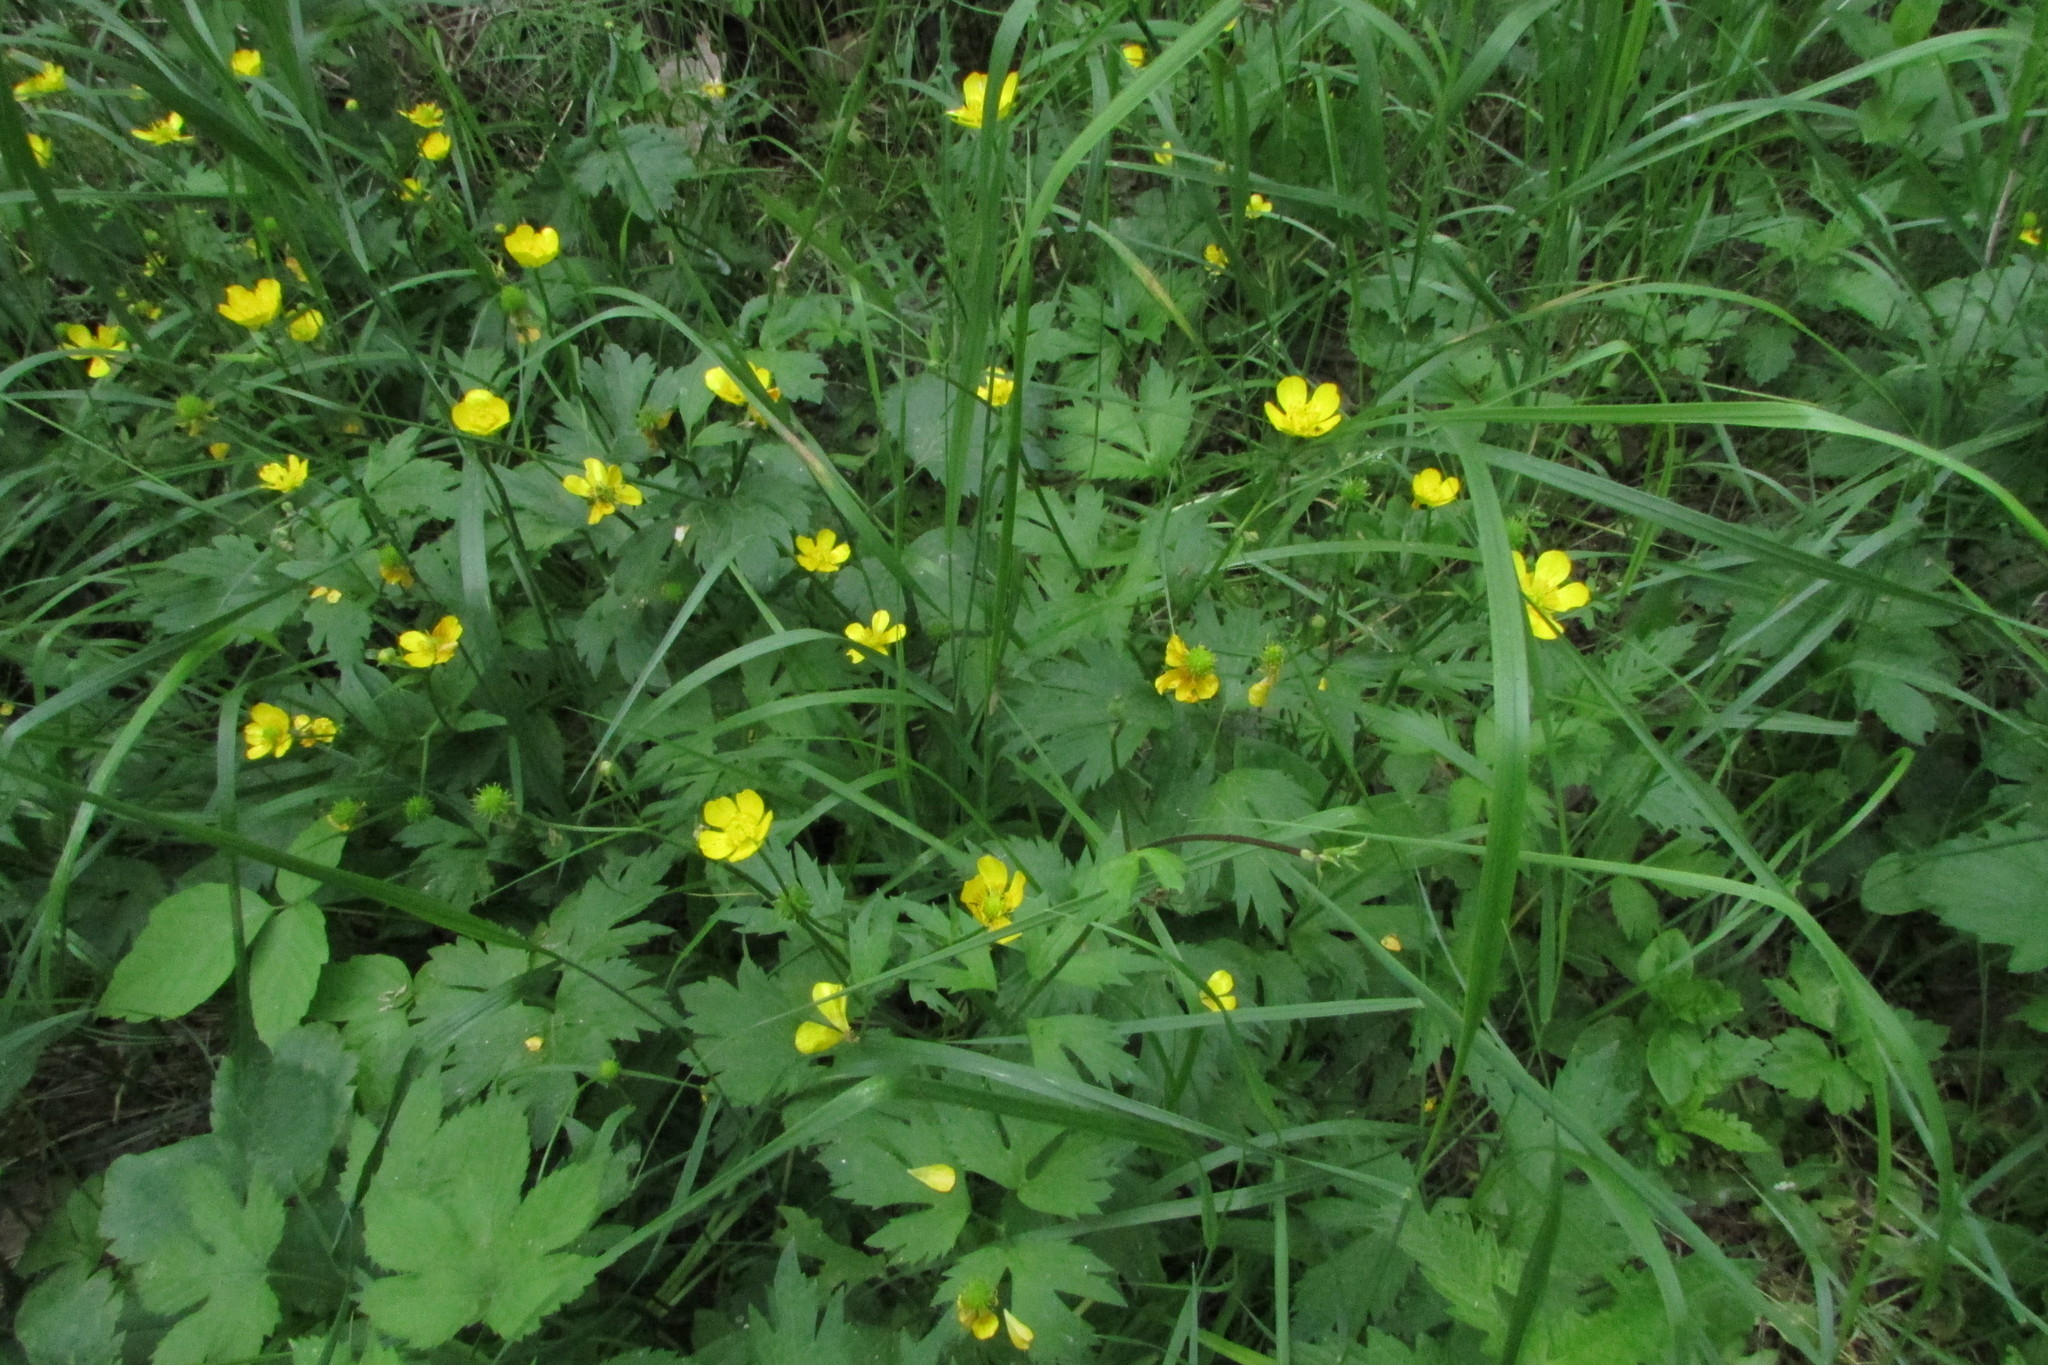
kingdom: Plantae
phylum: Tracheophyta
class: Magnoliopsida
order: Ranunculales
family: Ranunculaceae
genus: Ranunculus
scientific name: Ranunculus repens
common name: Creeping buttercup
